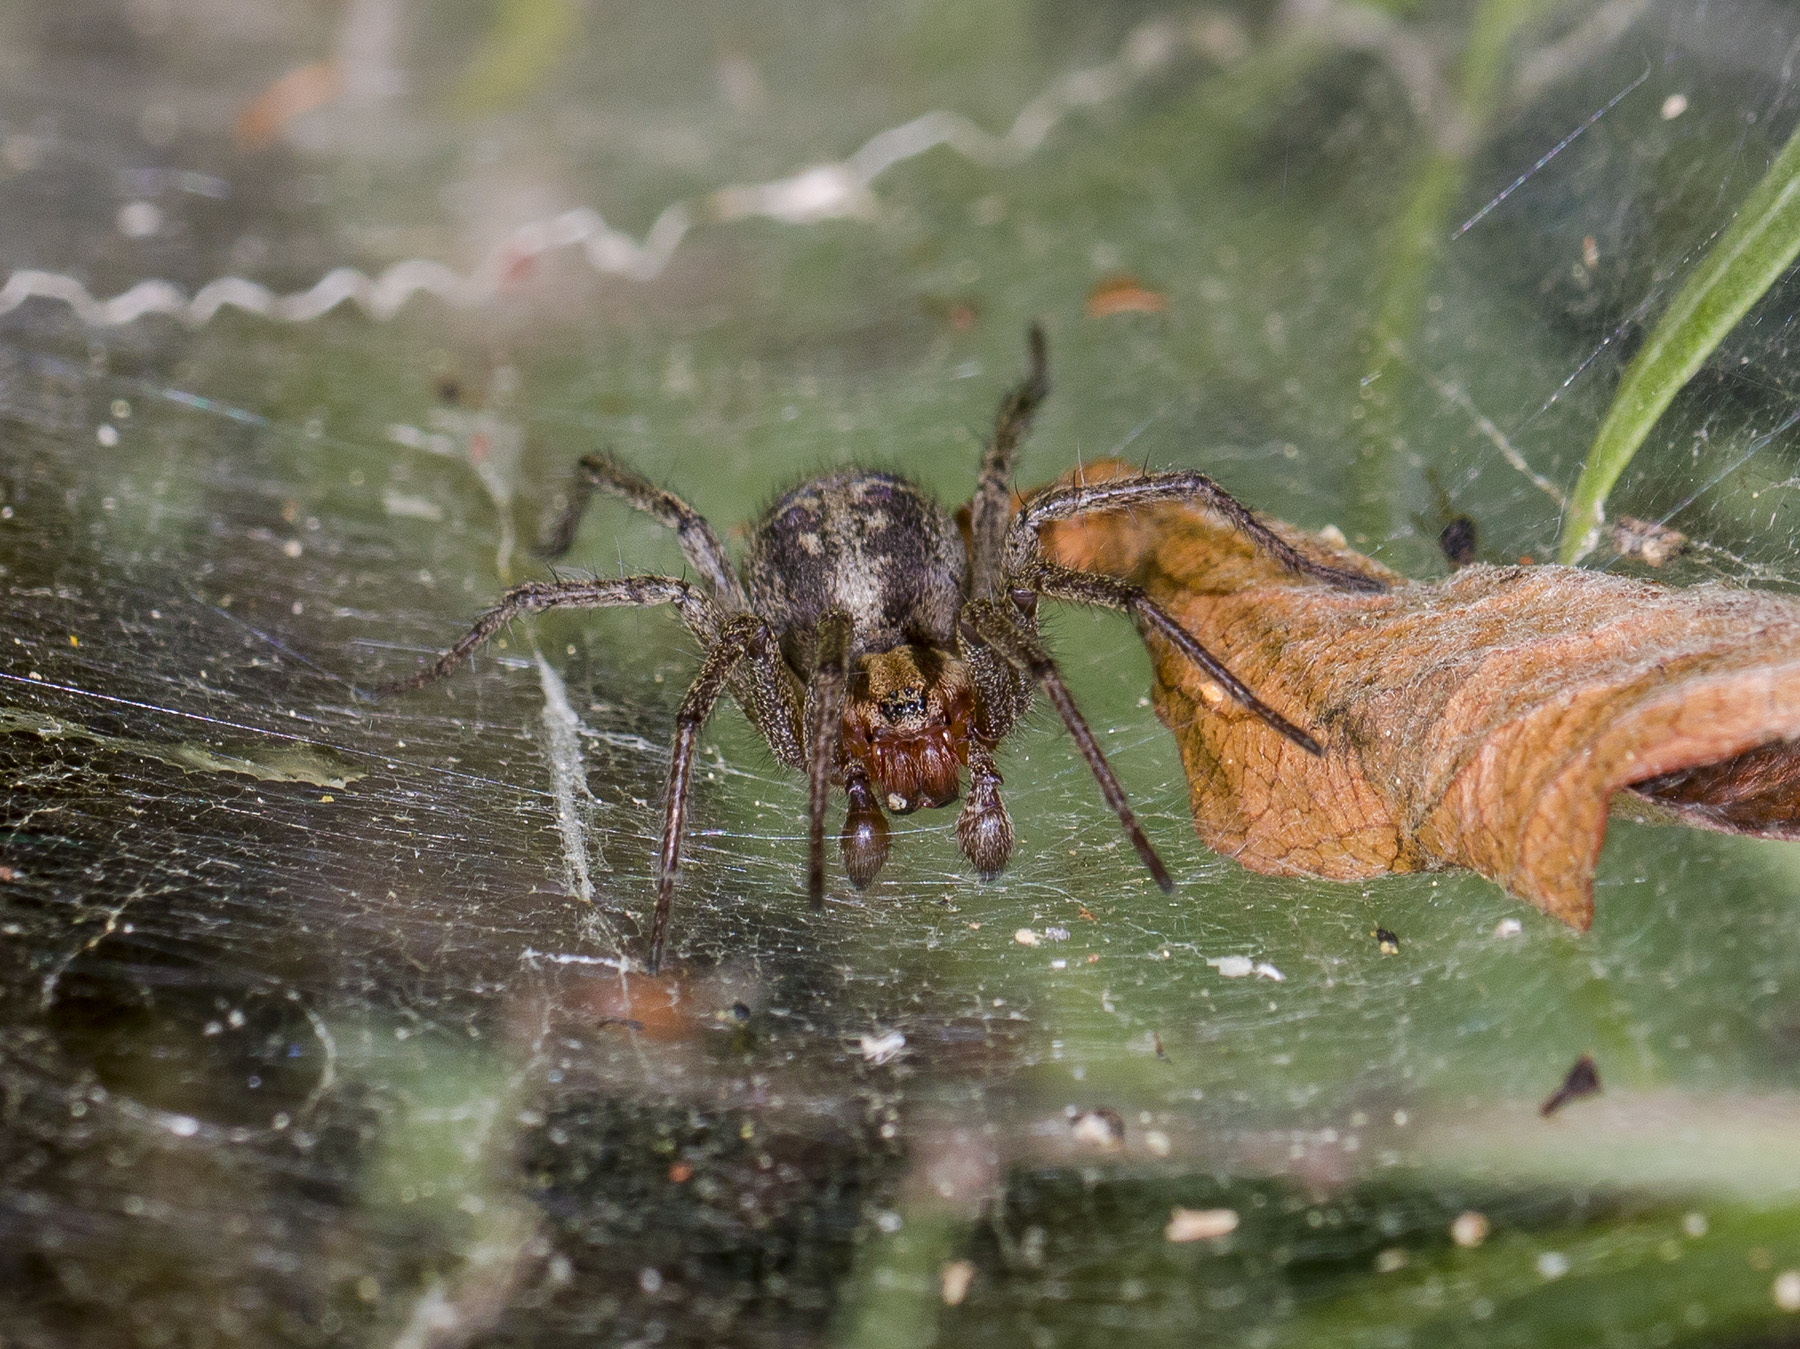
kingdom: Animalia
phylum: Arthropoda
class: Arachnida
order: Araneae
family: Agelenidae
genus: Agelena
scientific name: Agelena labyrinthica
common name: Labyrinth spider
